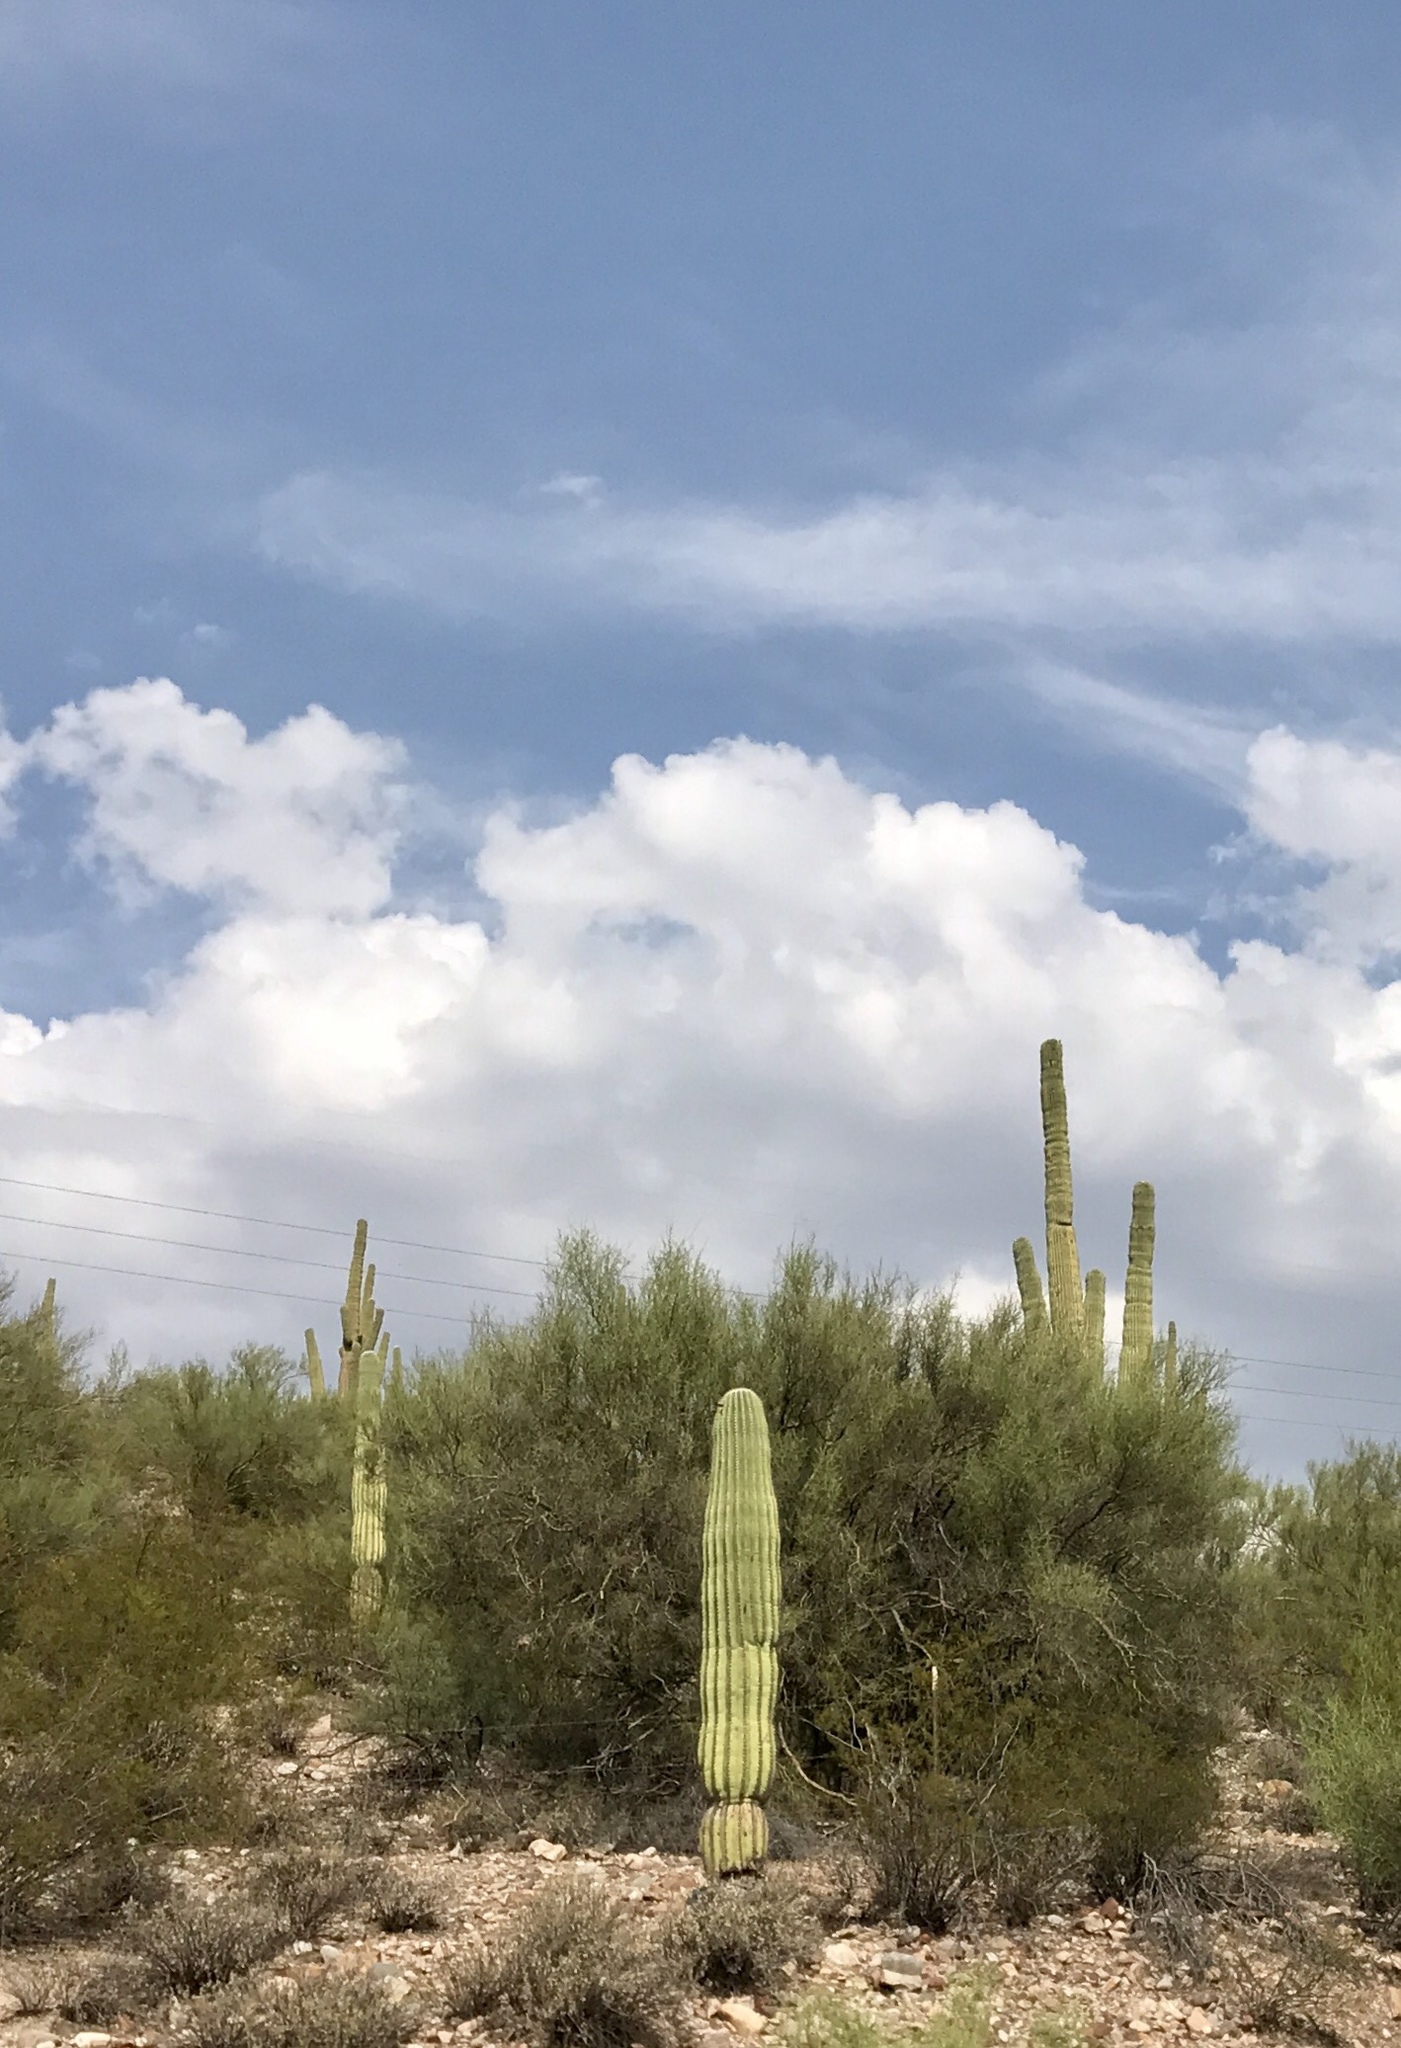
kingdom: Plantae
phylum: Tracheophyta
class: Magnoliopsida
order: Caryophyllales
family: Cactaceae
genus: Carnegiea
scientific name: Carnegiea gigantea
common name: Saguaro
